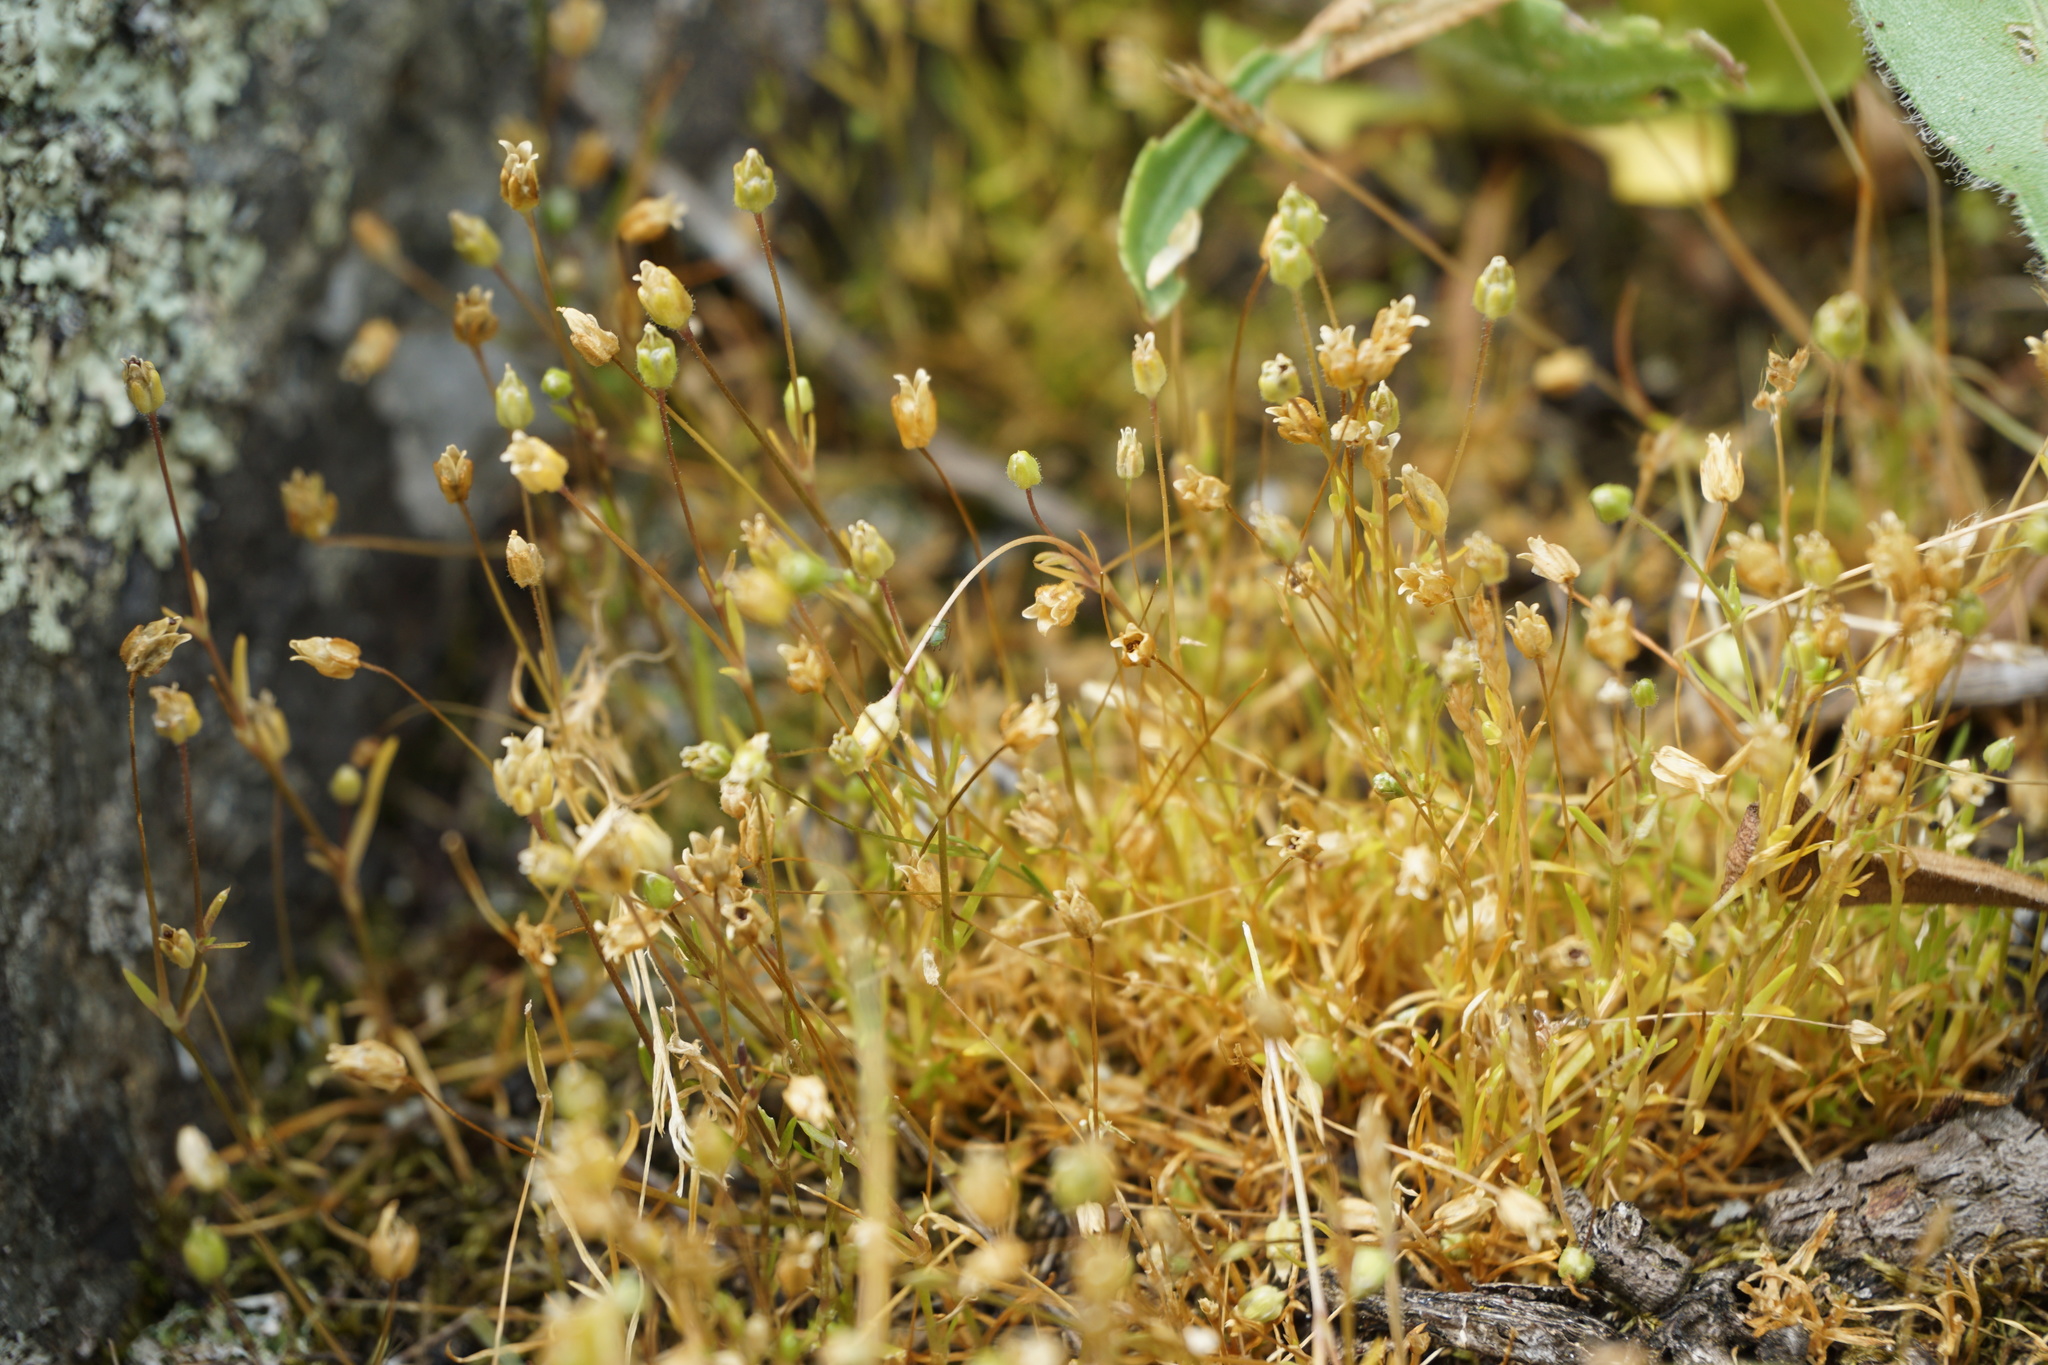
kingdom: Plantae
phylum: Tracheophyta
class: Magnoliopsida
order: Caryophyllales
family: Caryophyllaceae
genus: Sagina
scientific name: Sagina maxima
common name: Coastal pearlwort
